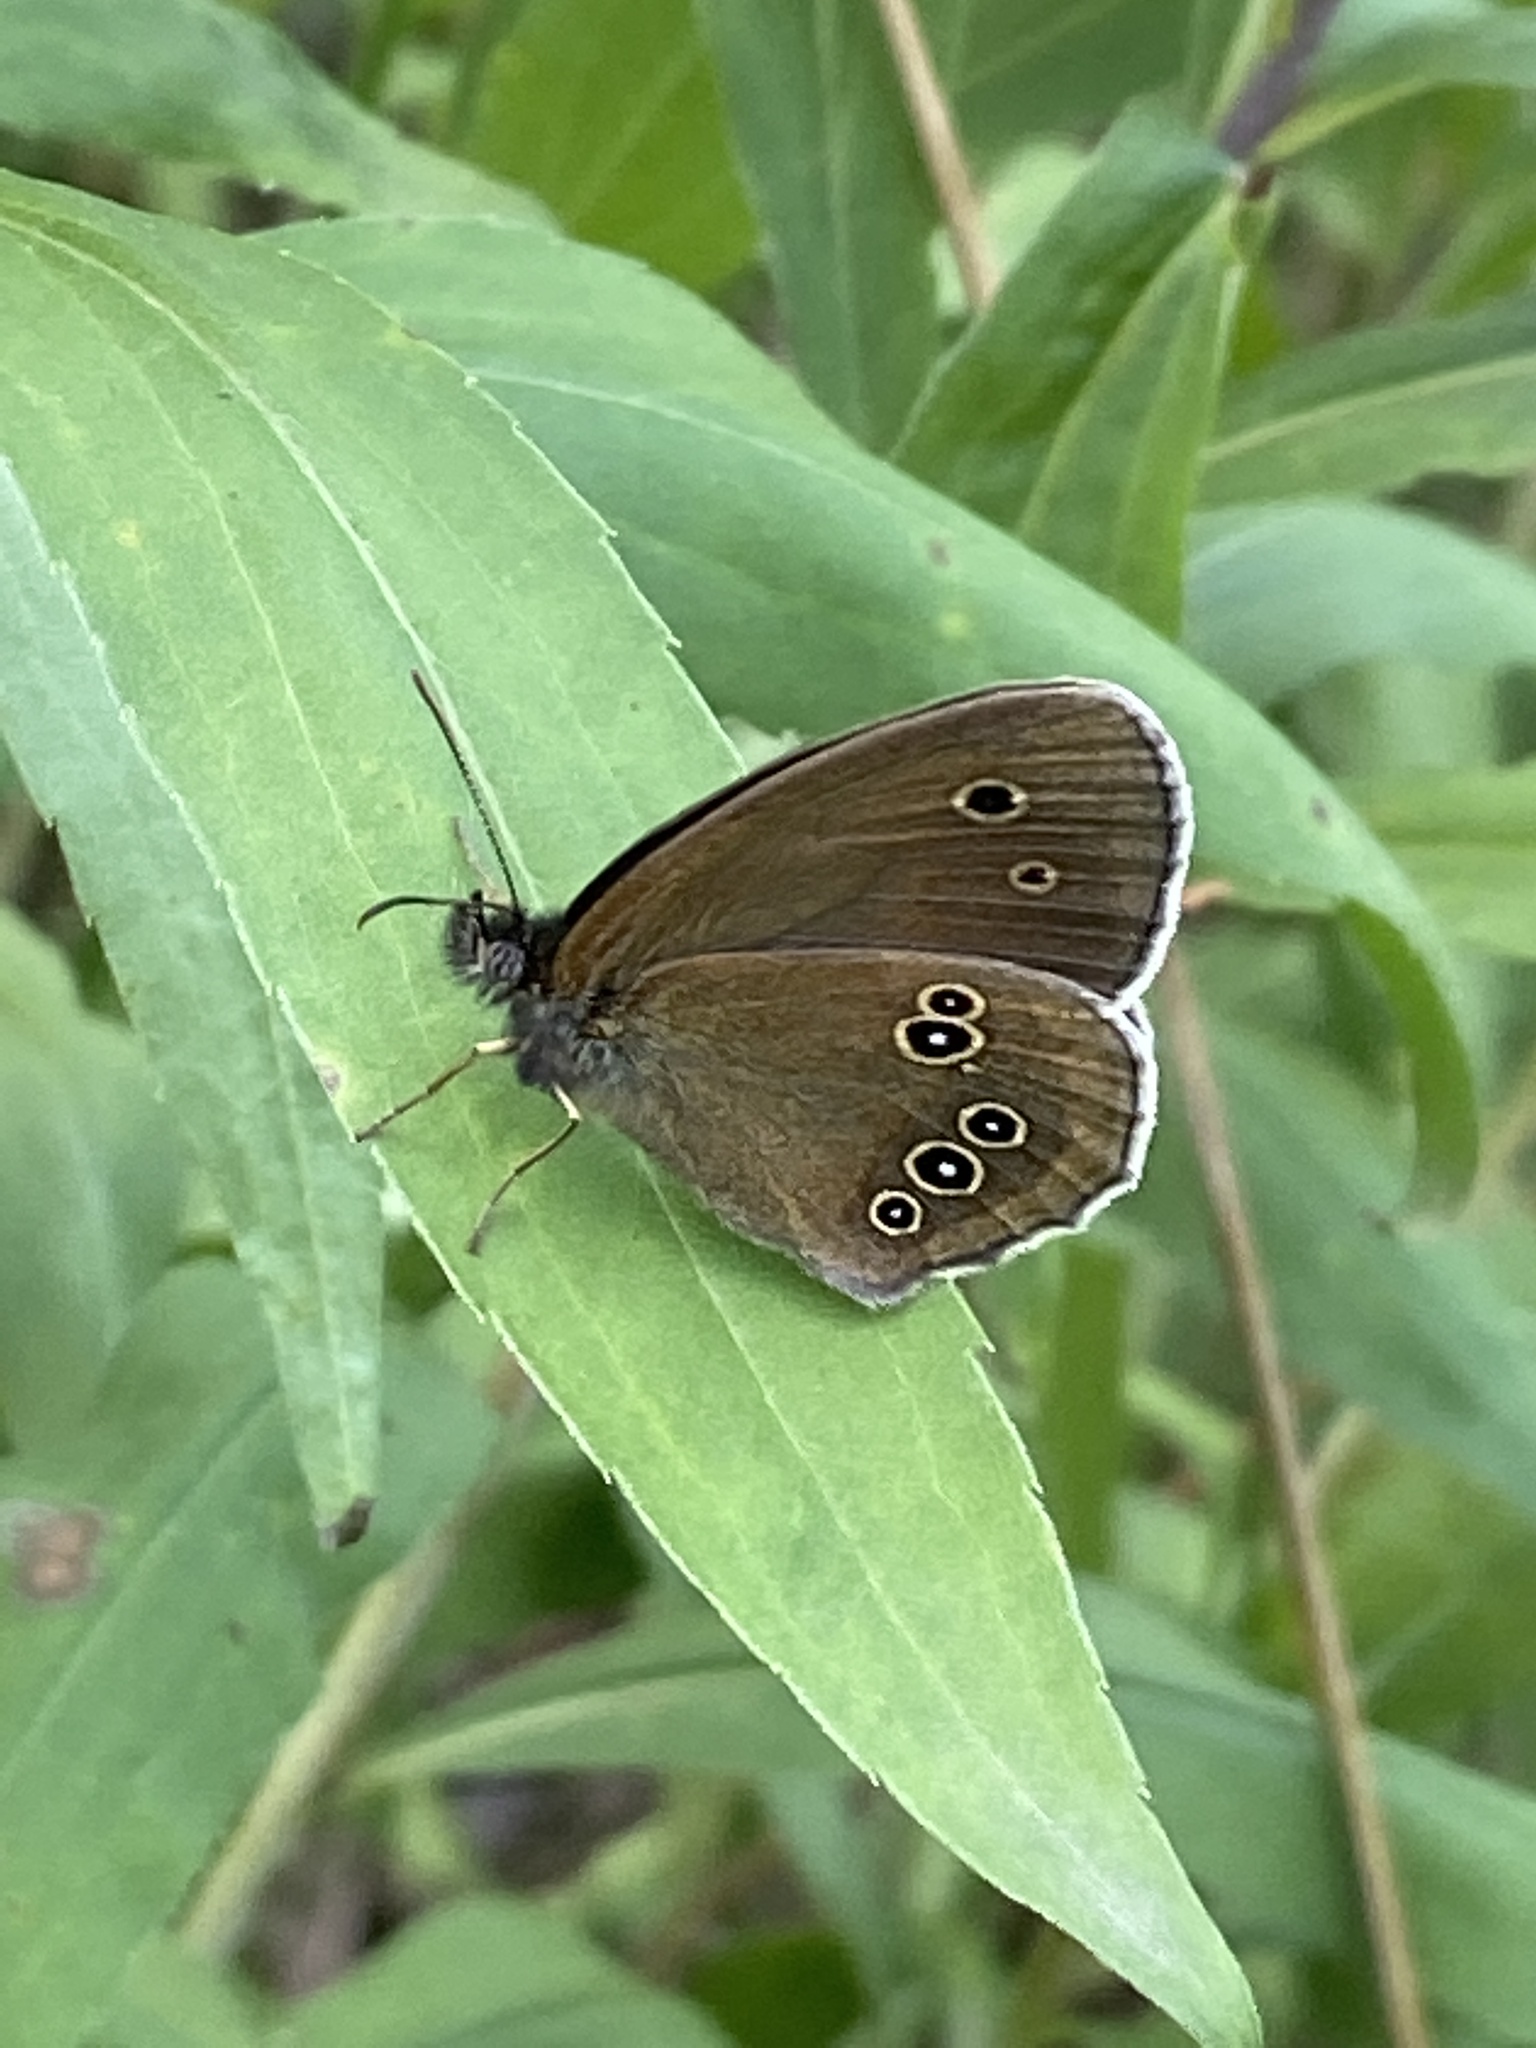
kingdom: Animalia
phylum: Arthropoda
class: Insecta
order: Lepidoptera
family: Nymphalidae
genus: Aphantopus
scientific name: Aphantopus hyperantus
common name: Ringlet
